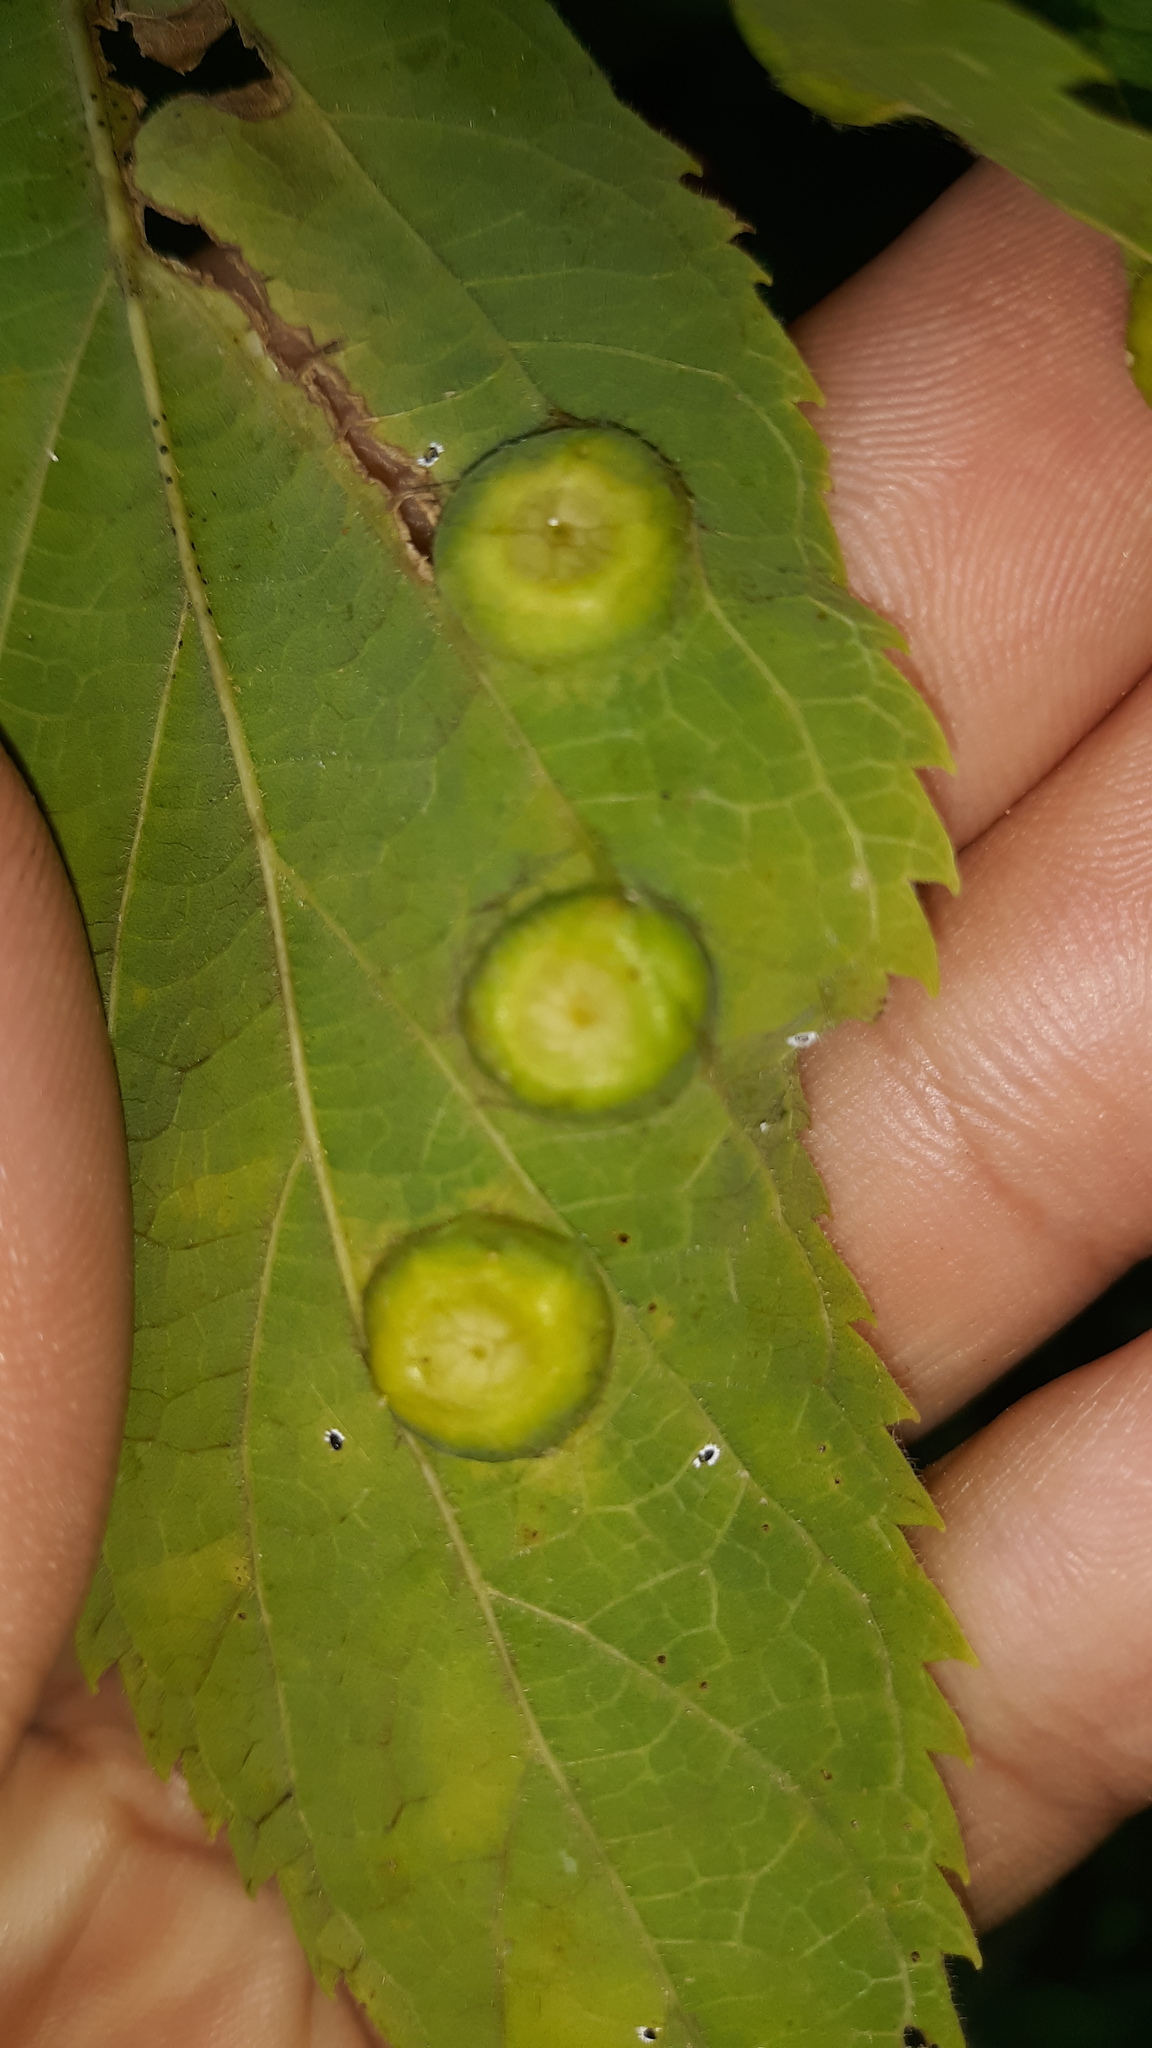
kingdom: Animalia
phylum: Arthropoda
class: Insecta
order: Hemiptera
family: Aphalaridae
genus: Pachypsylla
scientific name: Pachypsylla celtidisumbilicus
